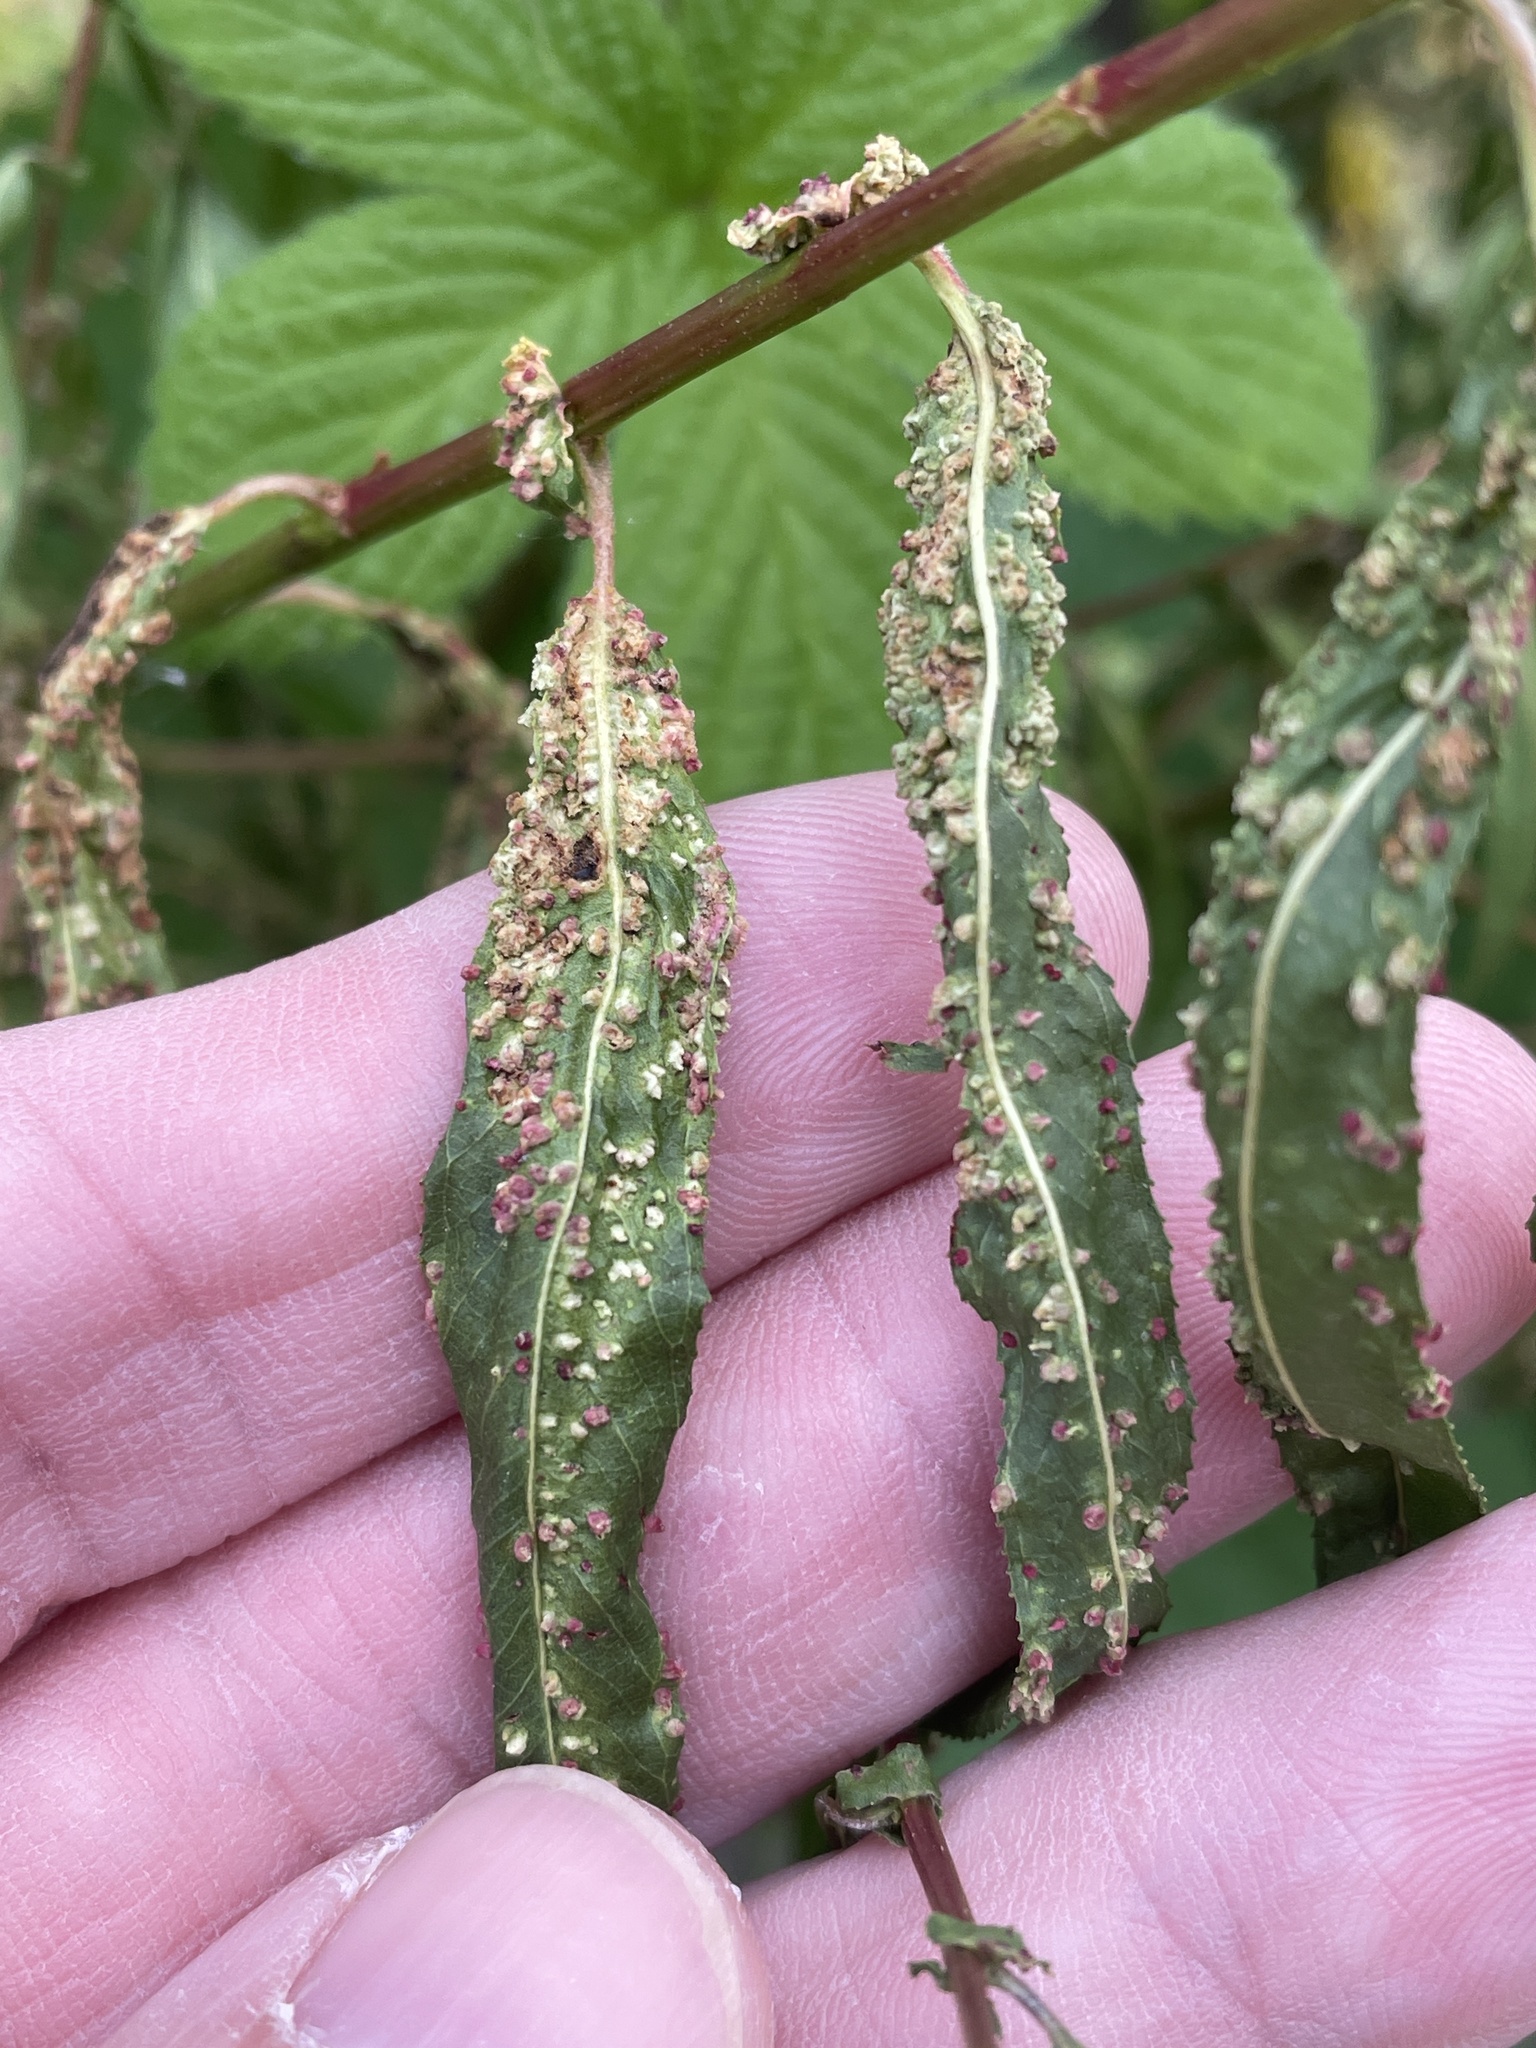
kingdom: Animalia
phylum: Arthropoda
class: Arachnida
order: Trombidiformes
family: Eriophyidae
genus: Aculus
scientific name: Aculus tetanothrix
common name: Willow bead gall mite
